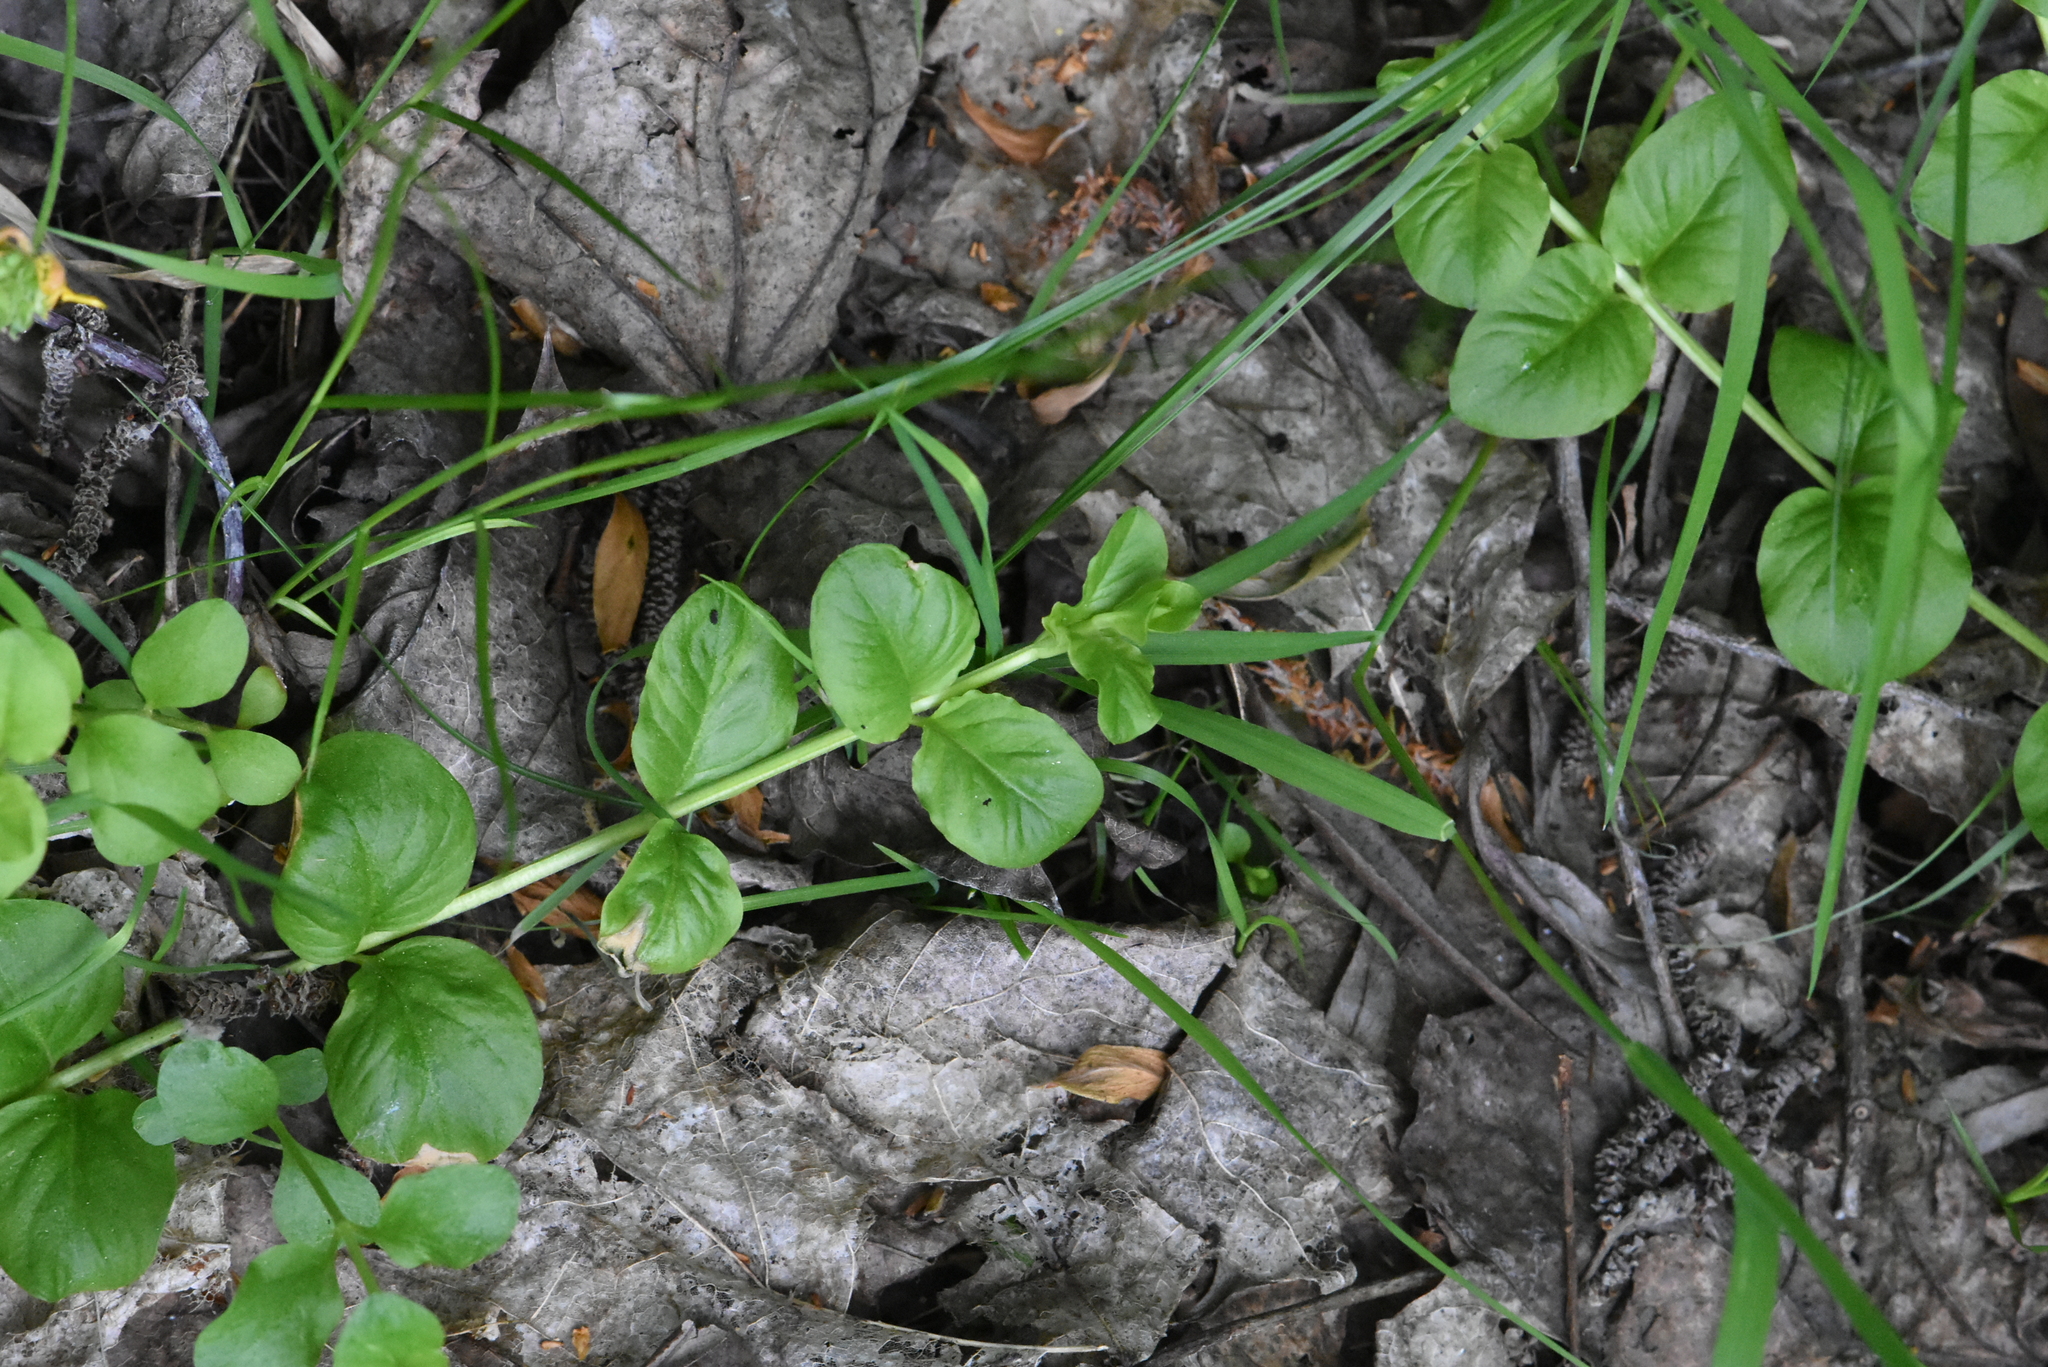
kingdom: Plantae
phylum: Tracheophyta
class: Magnoliopsida
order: Ericales
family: Primulaceae
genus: Lysimachia
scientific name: Lysimachia nummularia
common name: Moneywort
